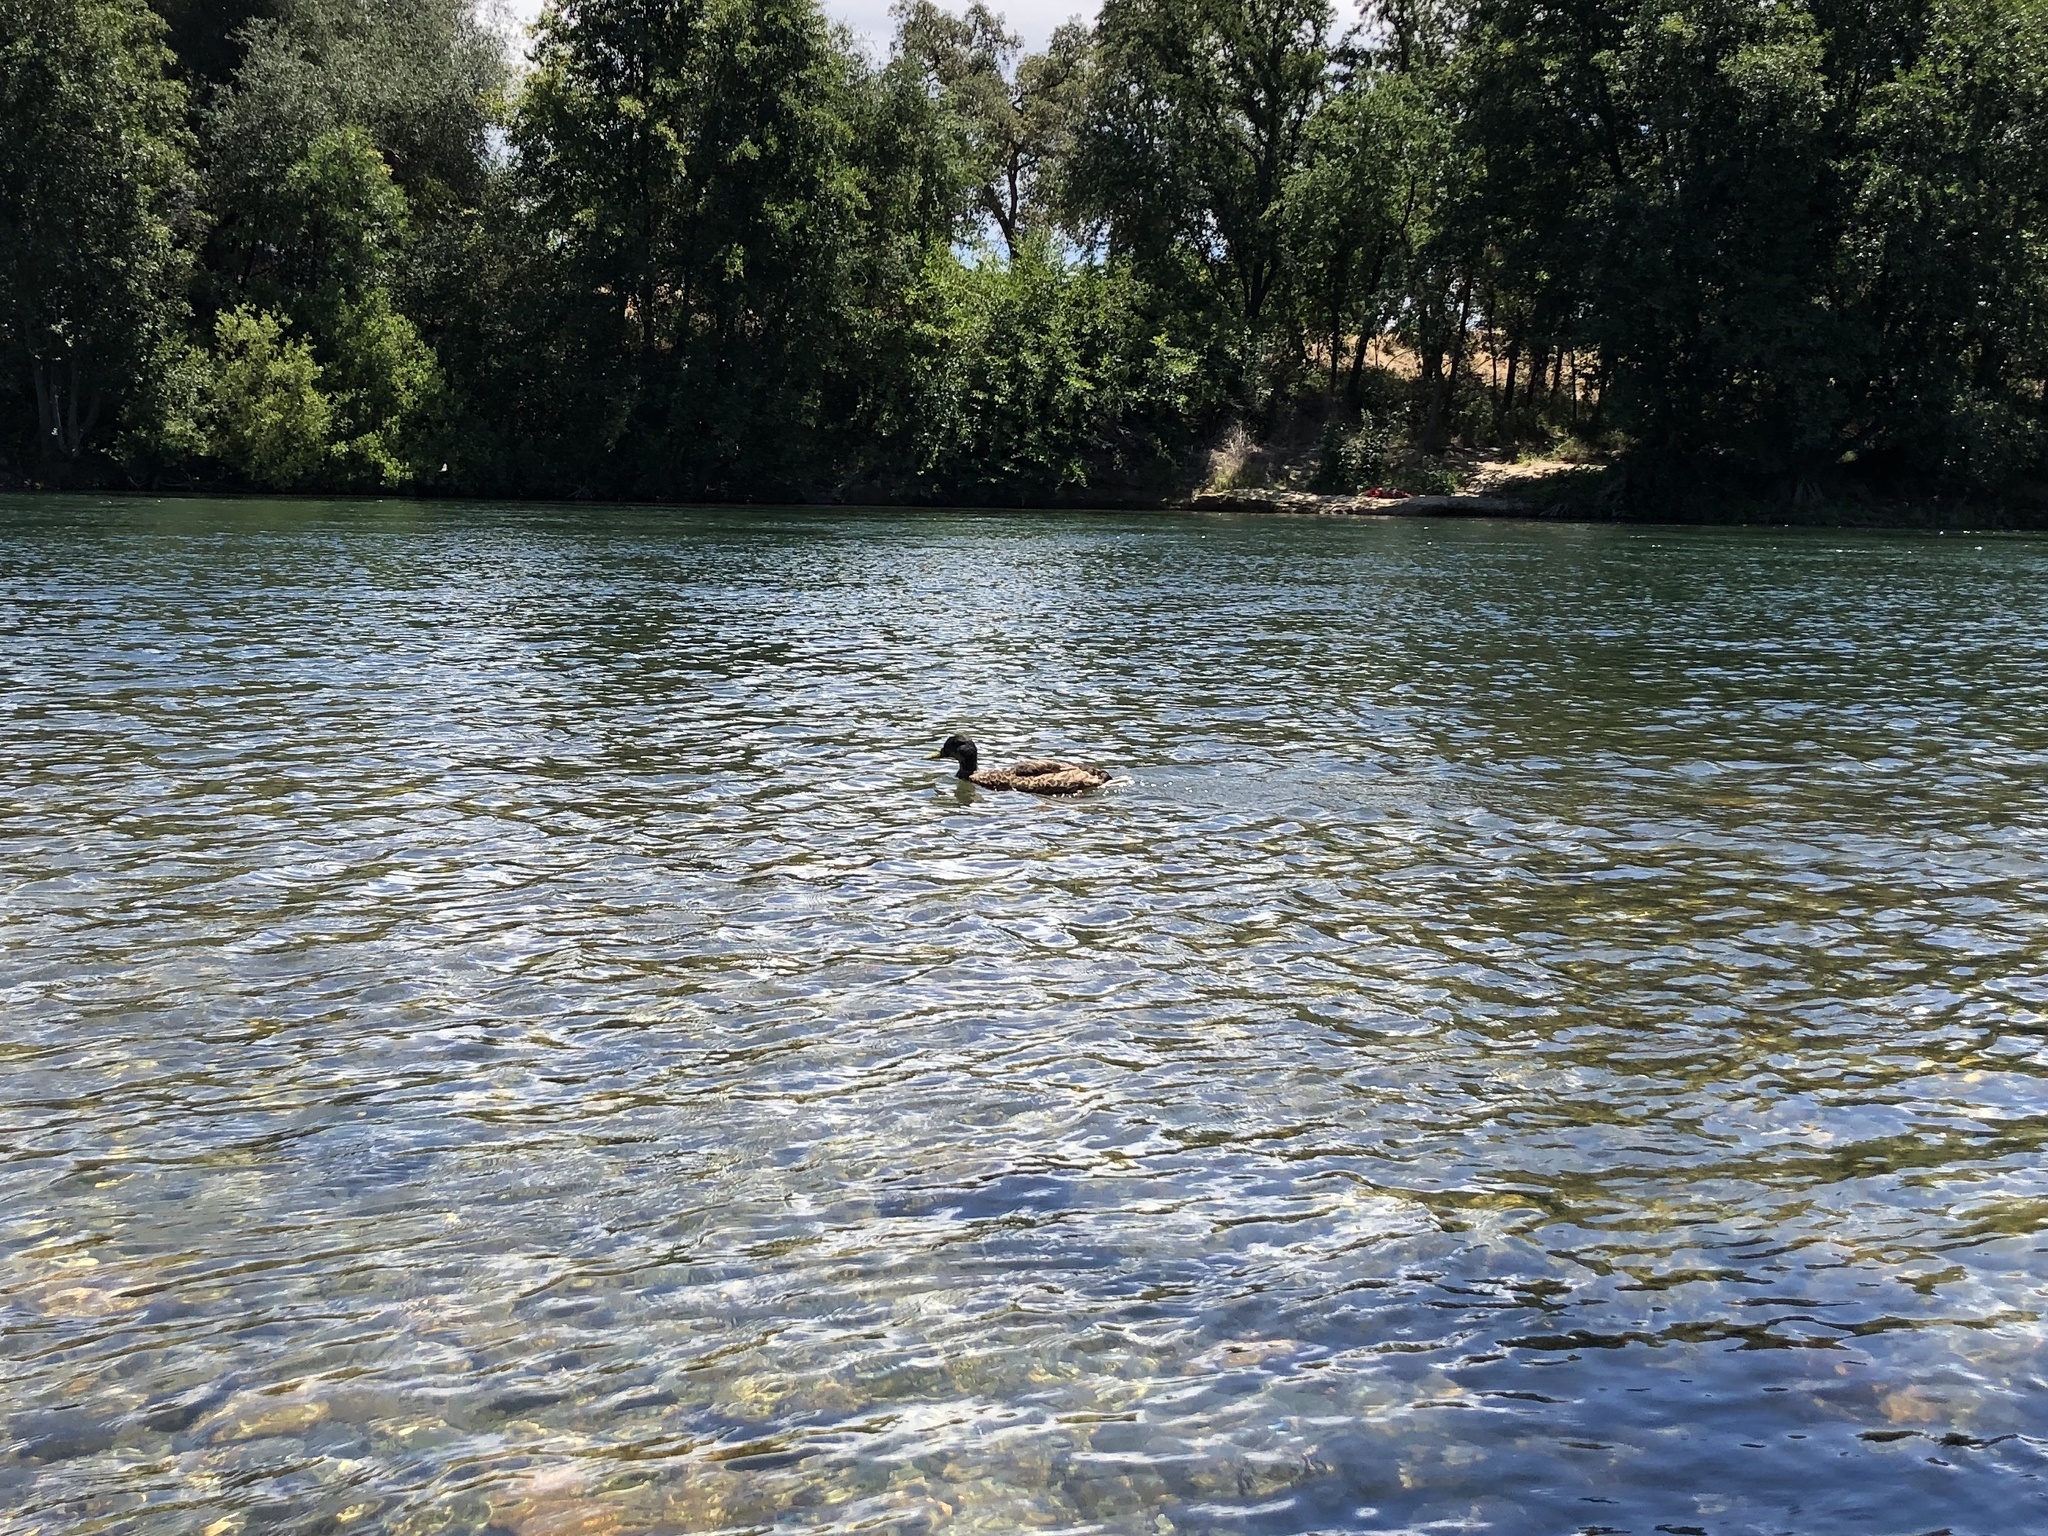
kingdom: Animalia
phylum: Chordata
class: Aves
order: Anseriformes
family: Anatidae
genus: Anas
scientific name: Anas platyrhynchos
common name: Mallard
